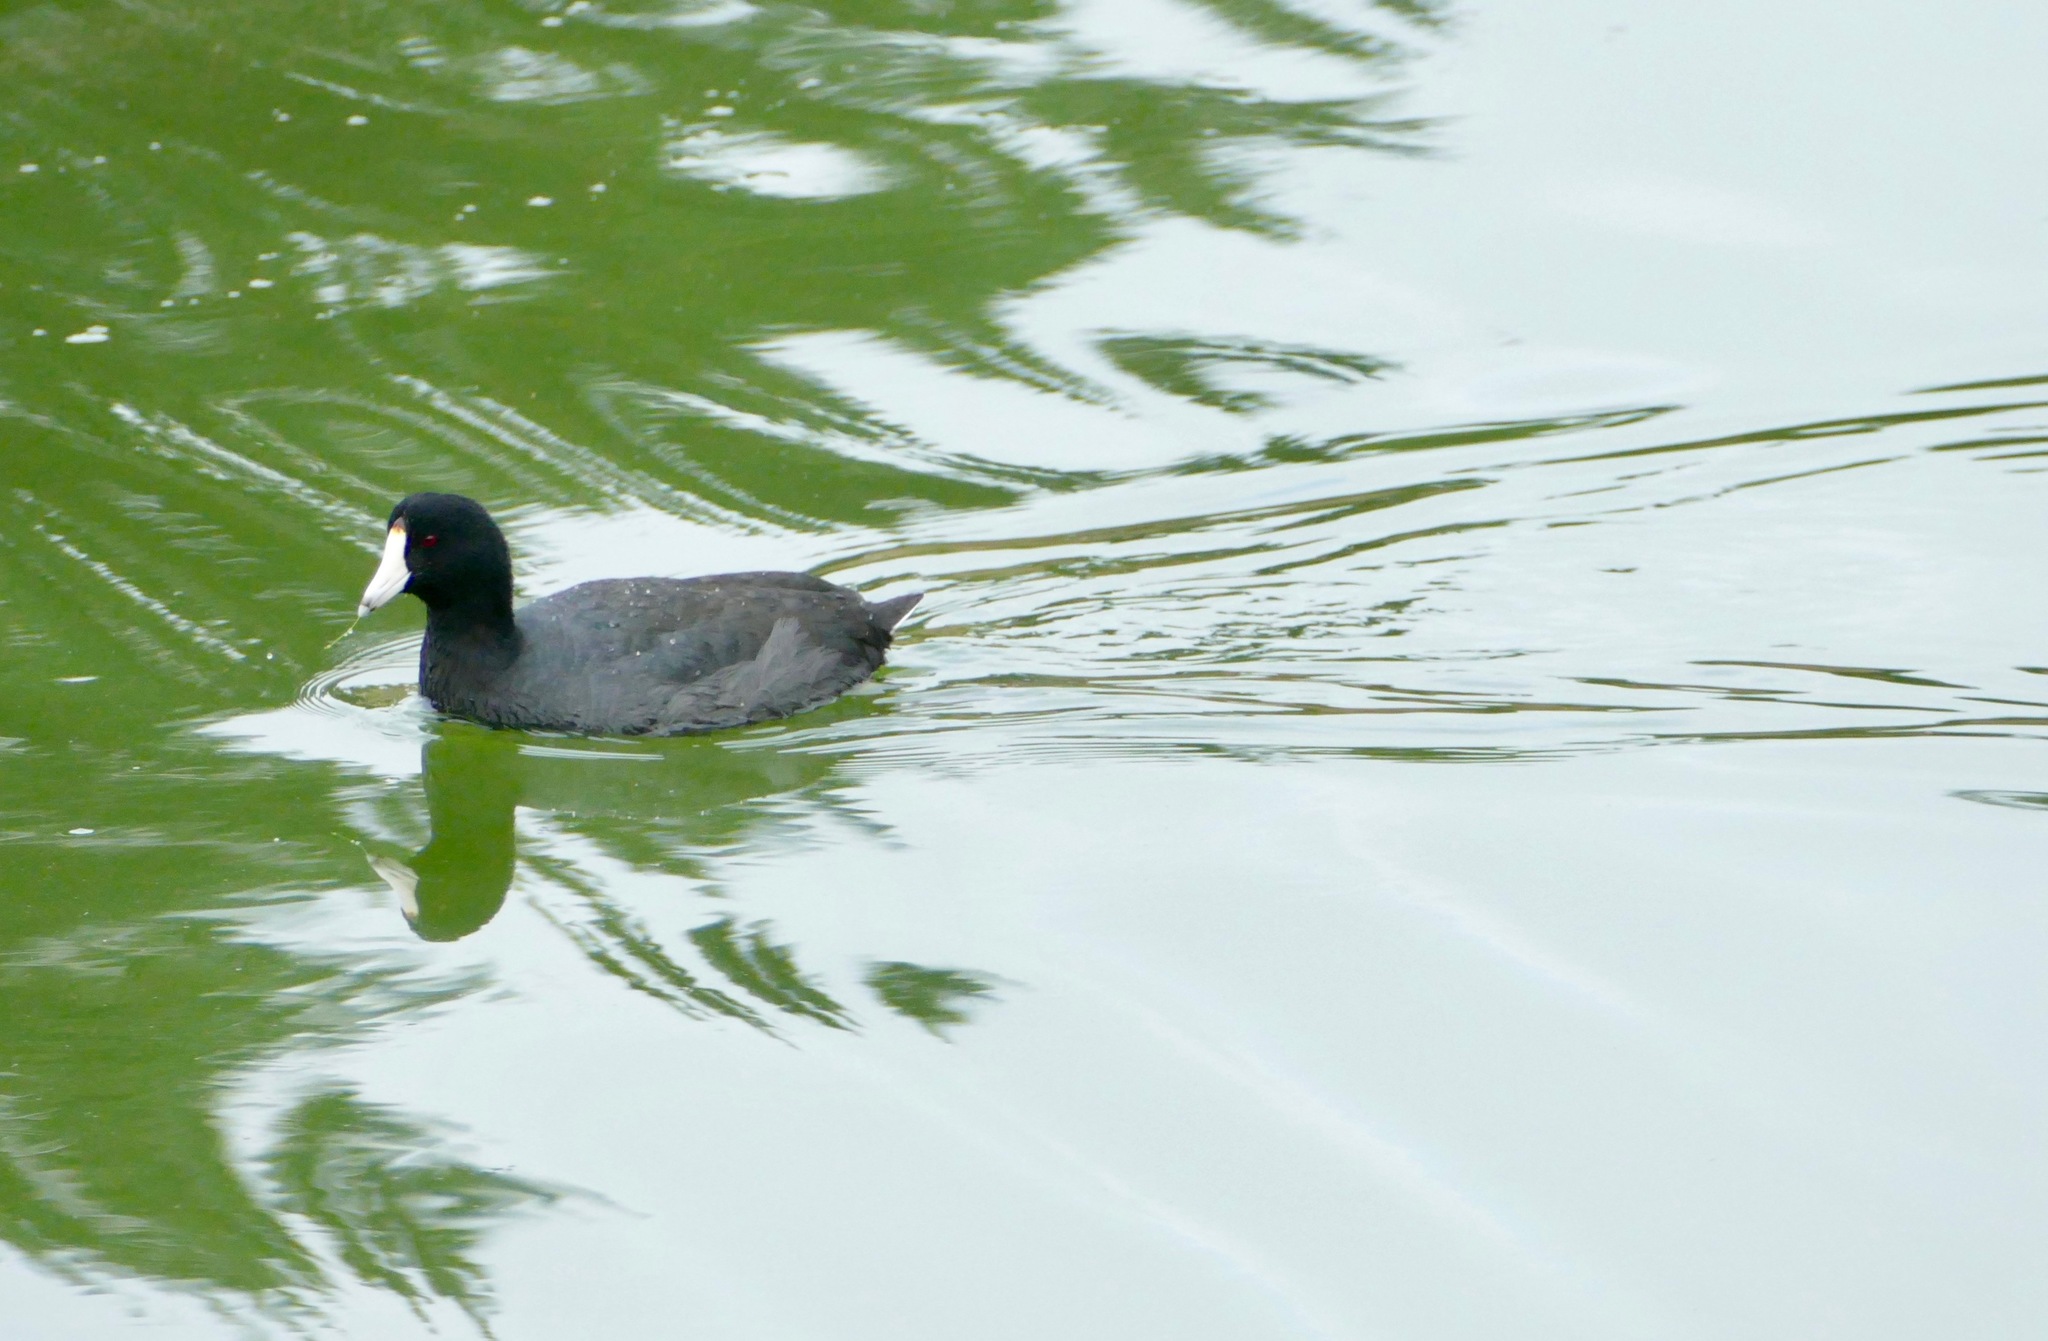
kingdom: Animalia
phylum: Chordata
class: Aves
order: Gruiformes
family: Rallidae
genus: Fulica
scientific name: Fulica americana
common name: American coot
